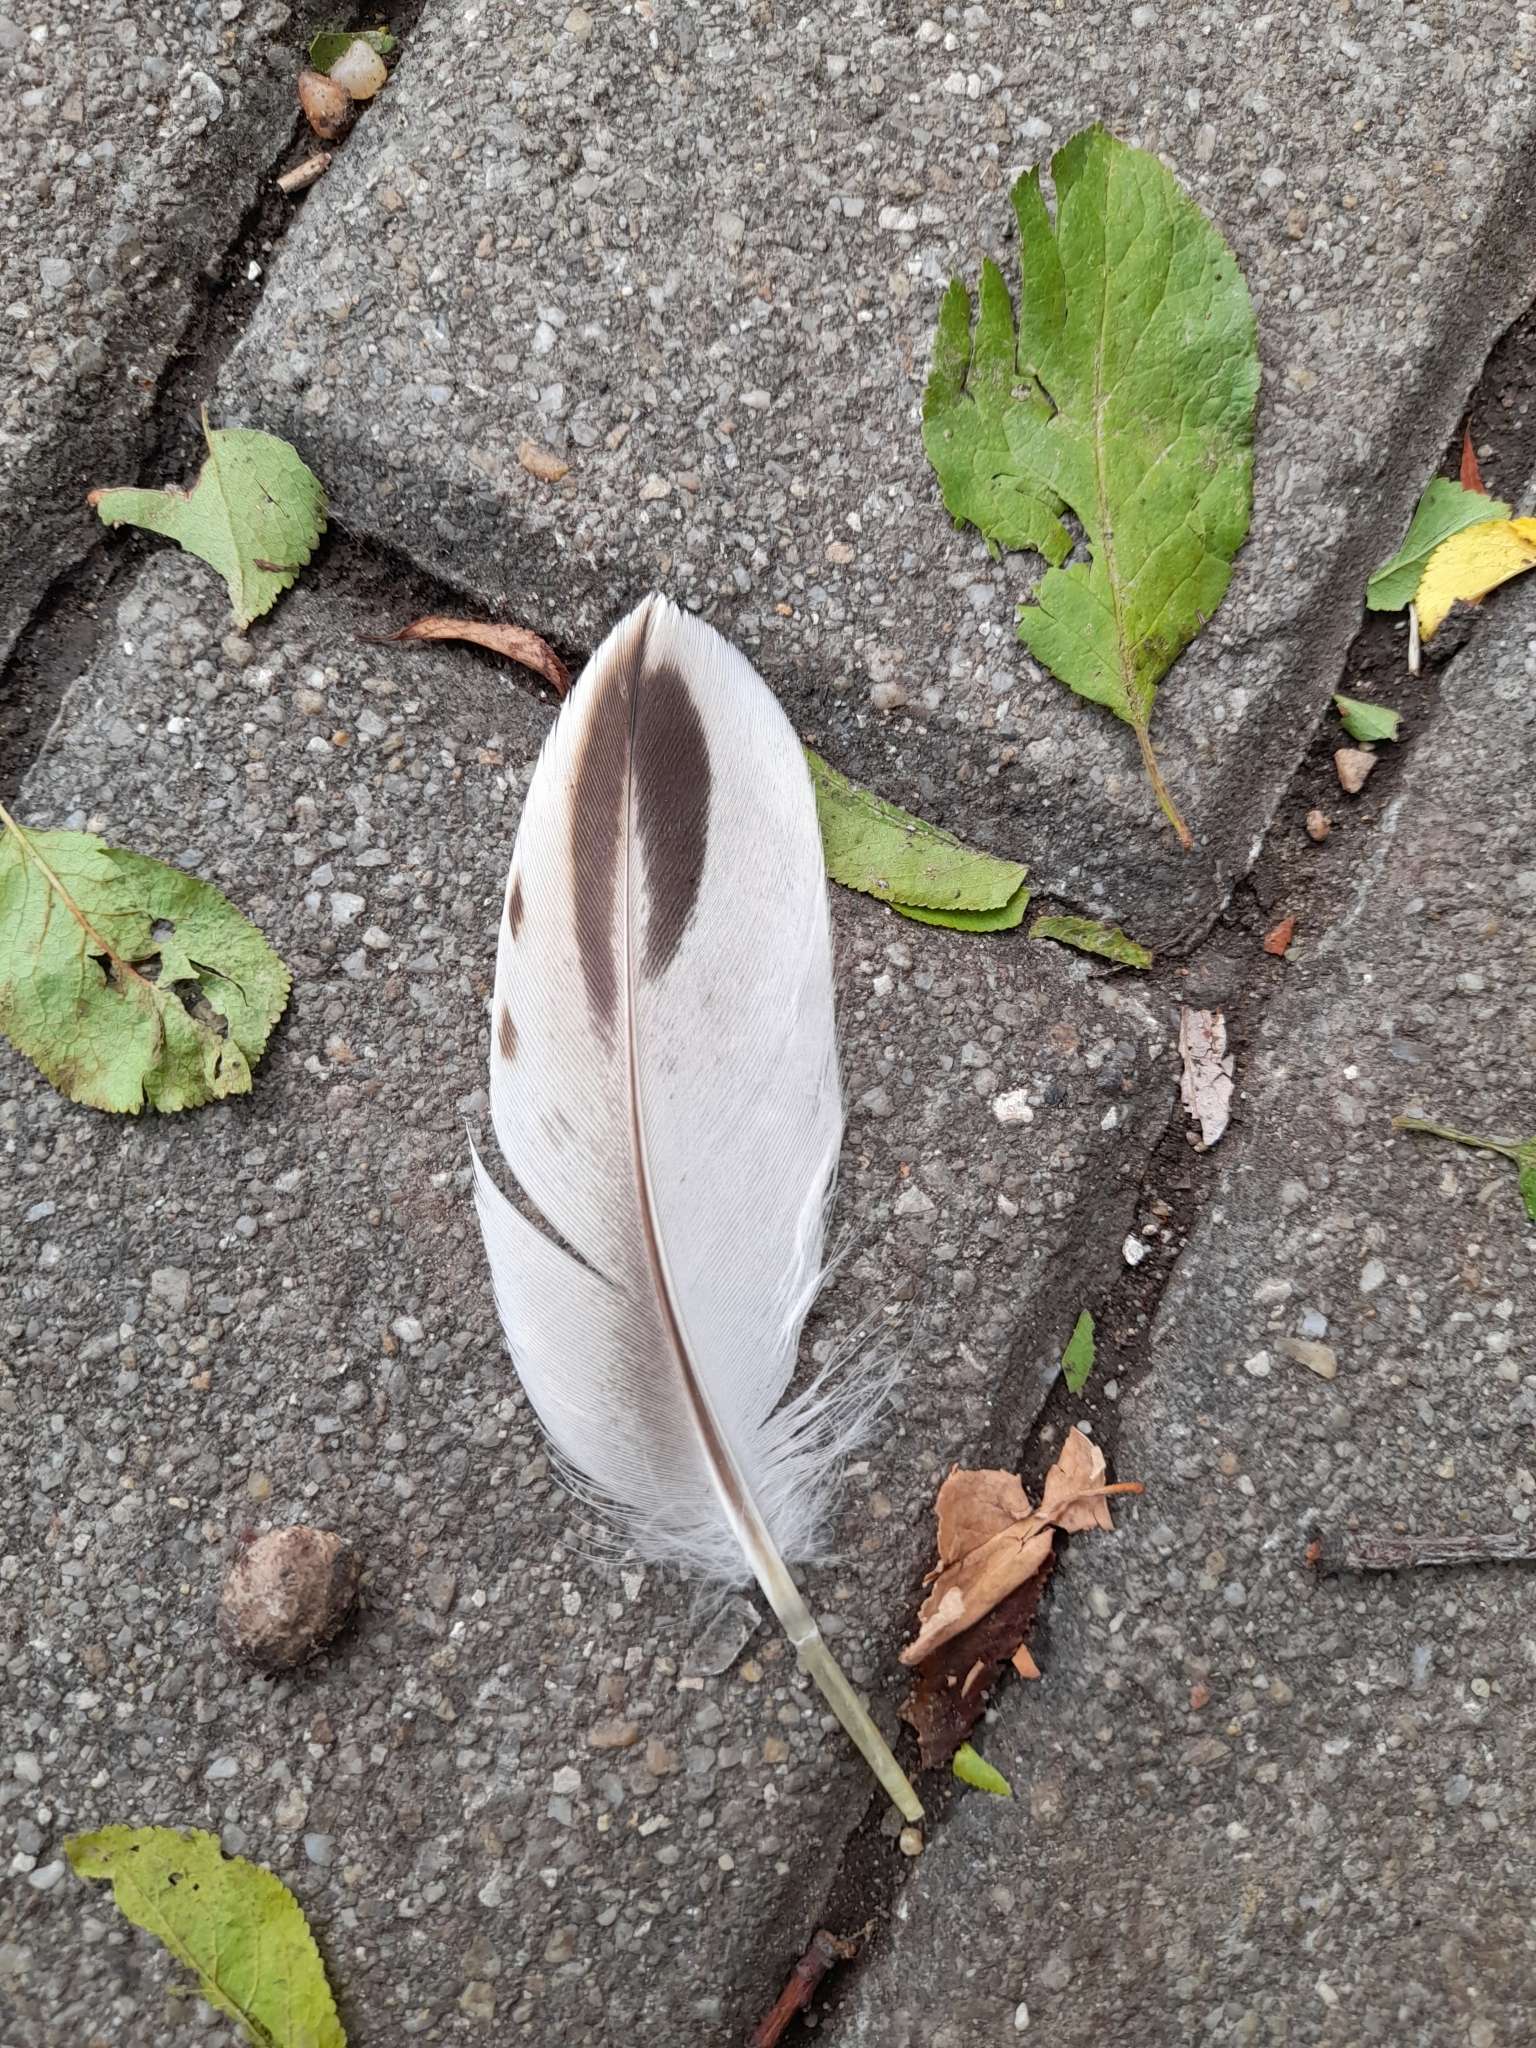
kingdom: Animalia
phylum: Chordata
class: Aves
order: Anseriformes
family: Anatidae
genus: Anas
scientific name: Anas platyrhynchos
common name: Mallard
